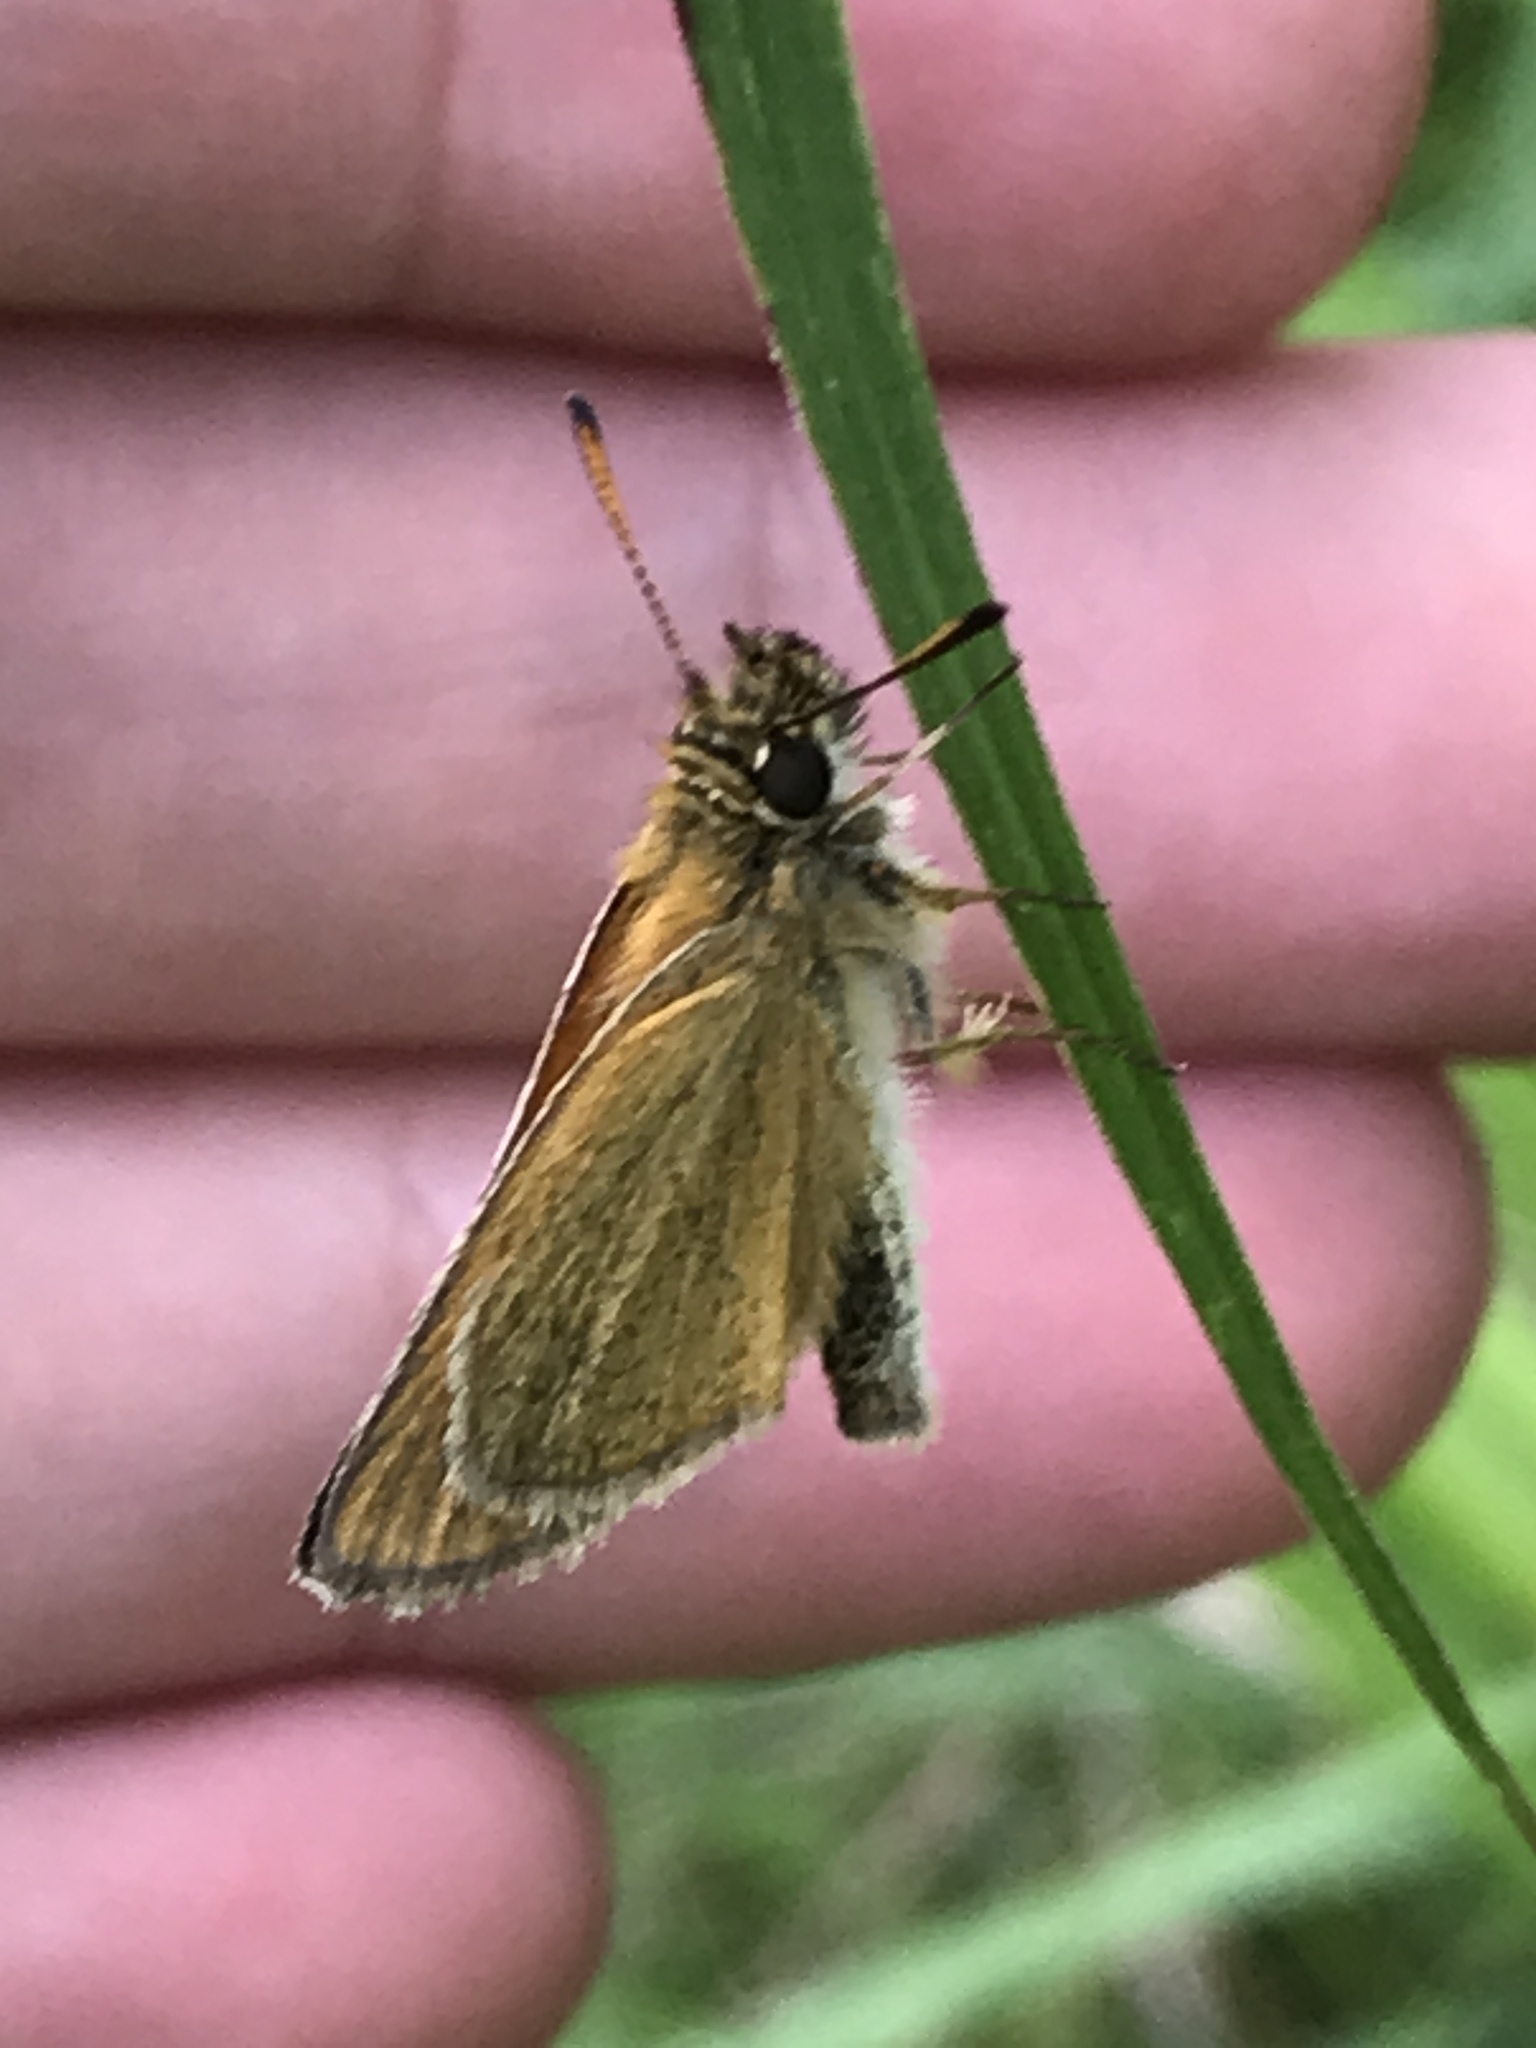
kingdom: Animalia
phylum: Arthropoda
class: Insecta
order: Lepidoptera
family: Hesperiidae
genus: Thymelicus
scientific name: Thymelicus lineola
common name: Essex skipper
